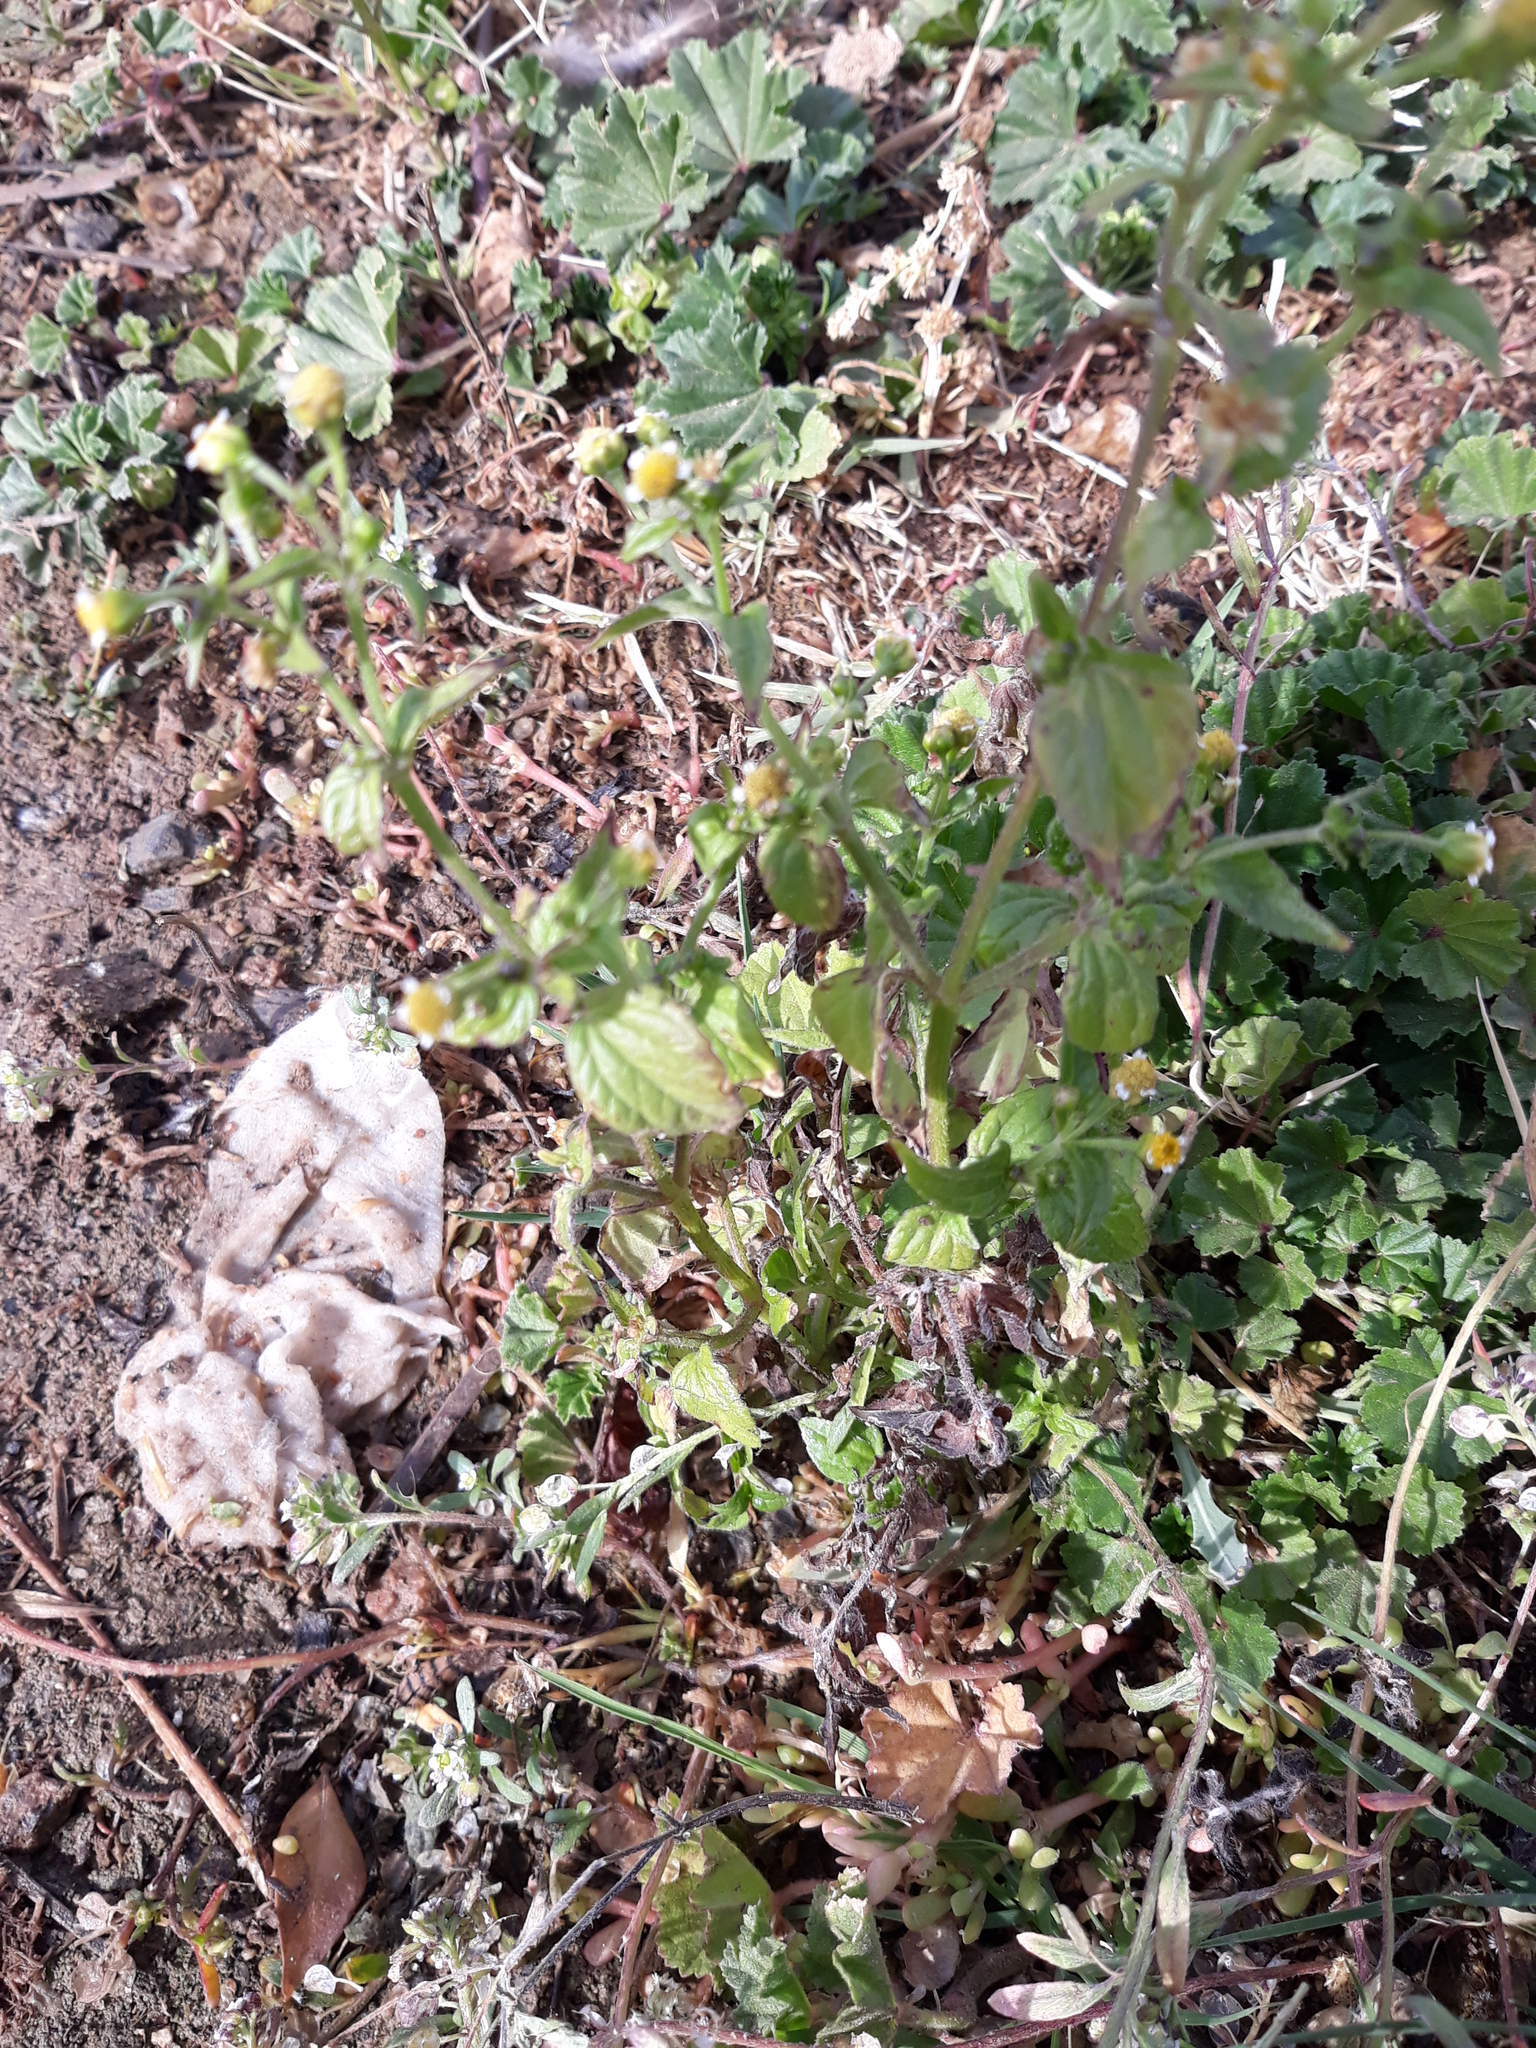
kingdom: Plantae
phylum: Tracheophyta
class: Magnoliopsida
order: Asterales
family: Asteraceae
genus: Galinsoga
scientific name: Galinsoga parviflora
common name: Gallant soldier
